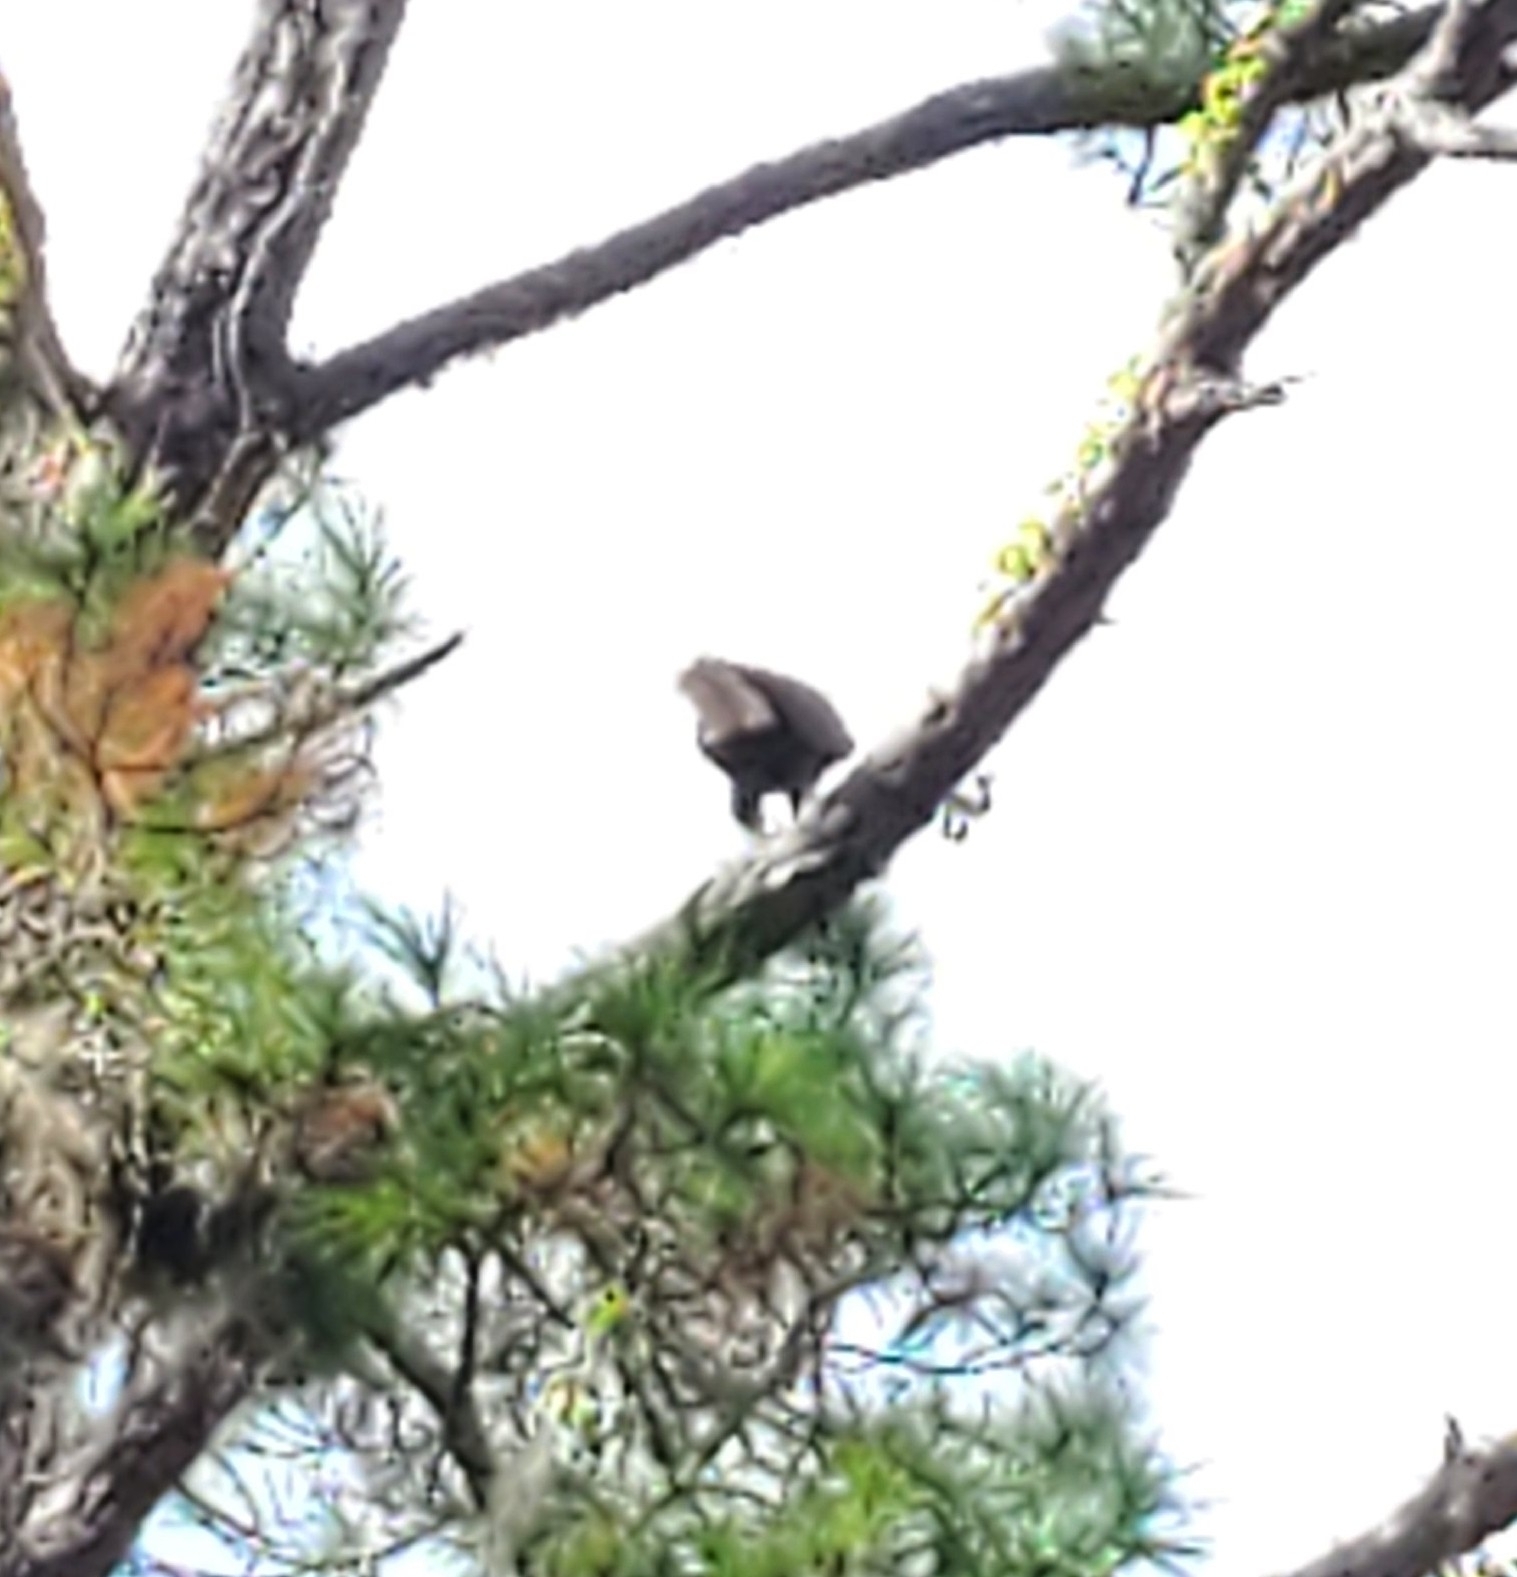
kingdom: Animalia
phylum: Chordata
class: Aves
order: Accipitriformes
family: Accipitridae
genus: Haliaeetus
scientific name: Haliaeetus leucocephalus
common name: Bald eagle
